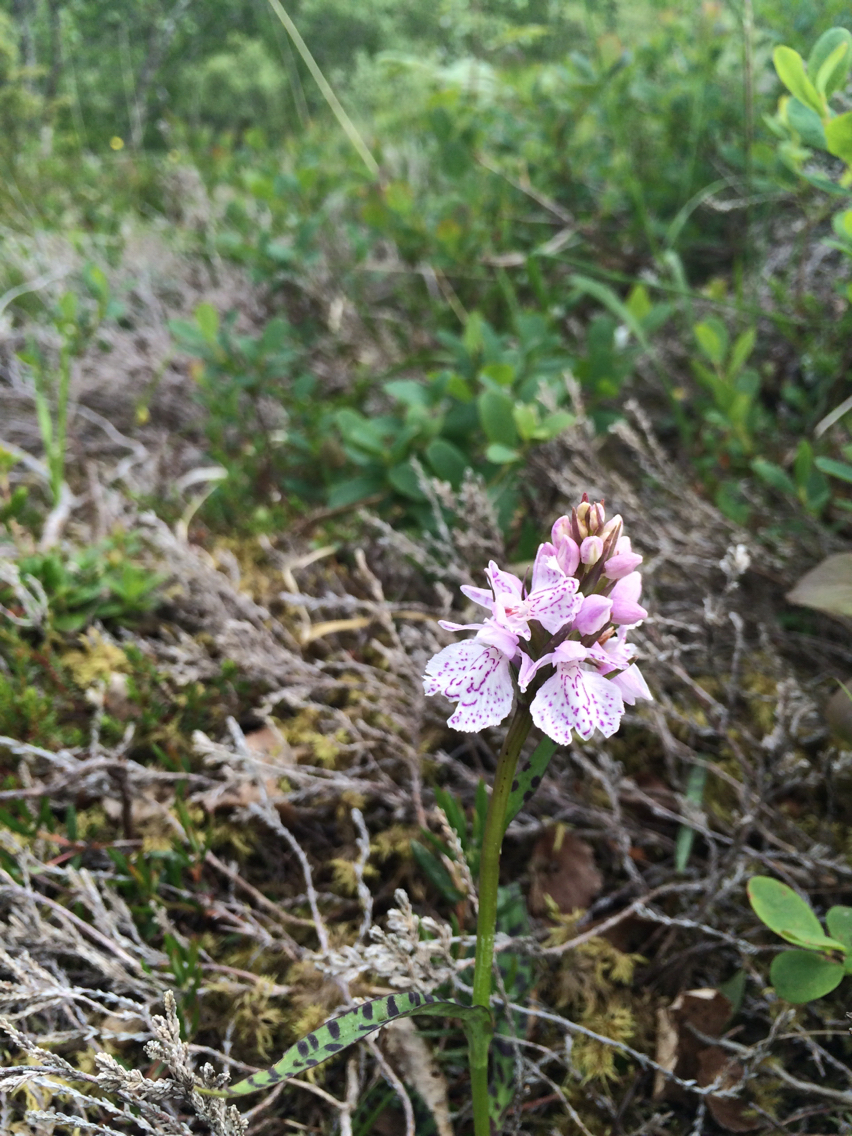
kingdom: Plantae
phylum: Tracheophyta
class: Liliopsida
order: Asparagales
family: Orchidaceae
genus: Dactylorhiza
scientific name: Dactylorhiza maculata
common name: Heath spotted-orchid
